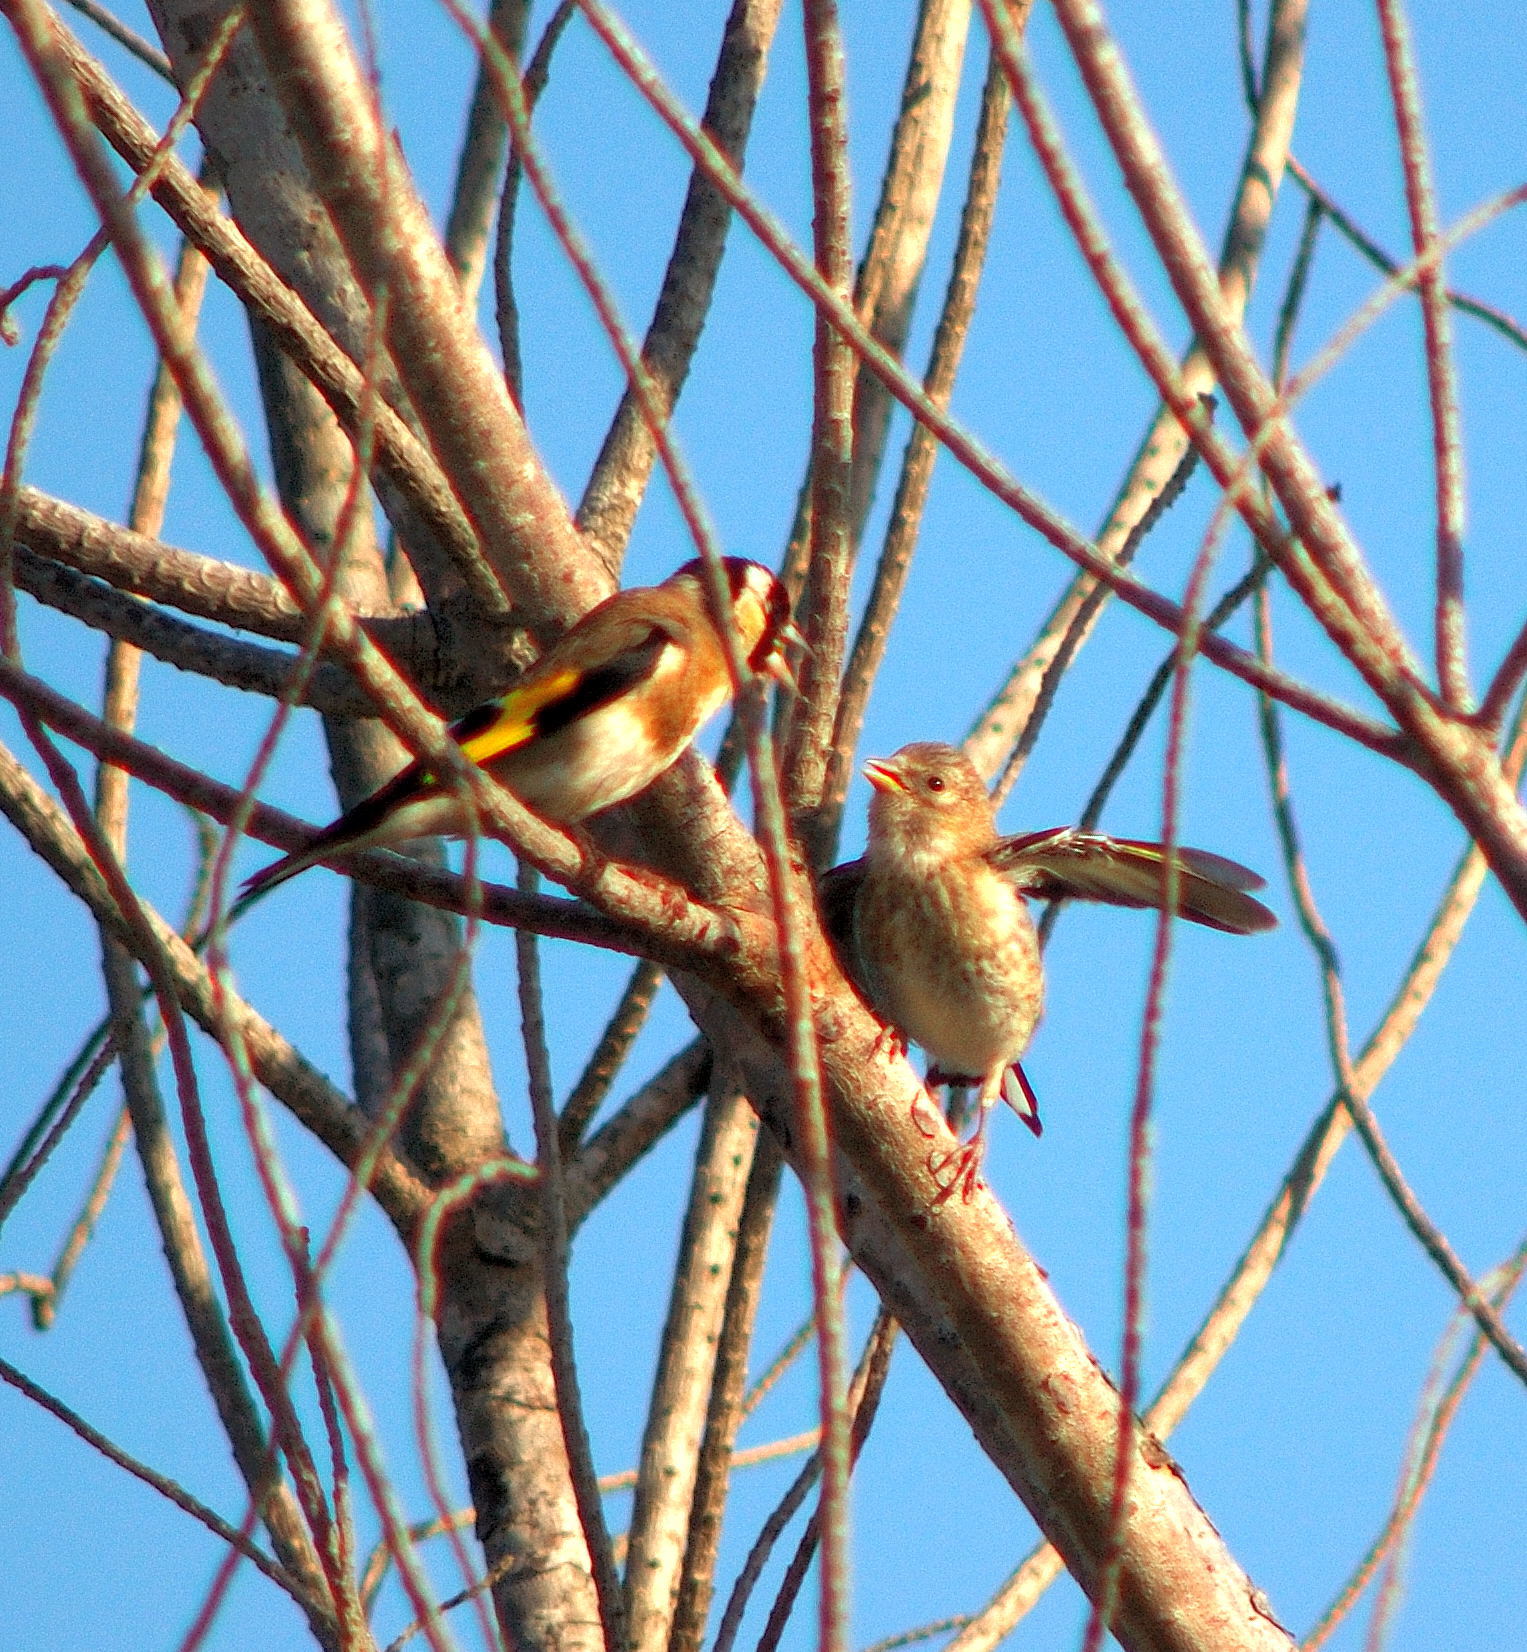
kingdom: Animalia
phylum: Chordata
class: Aves
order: Passeriformes
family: Fringillidae
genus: Carduelis
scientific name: Carduelis carduelis
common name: European goldfinch
